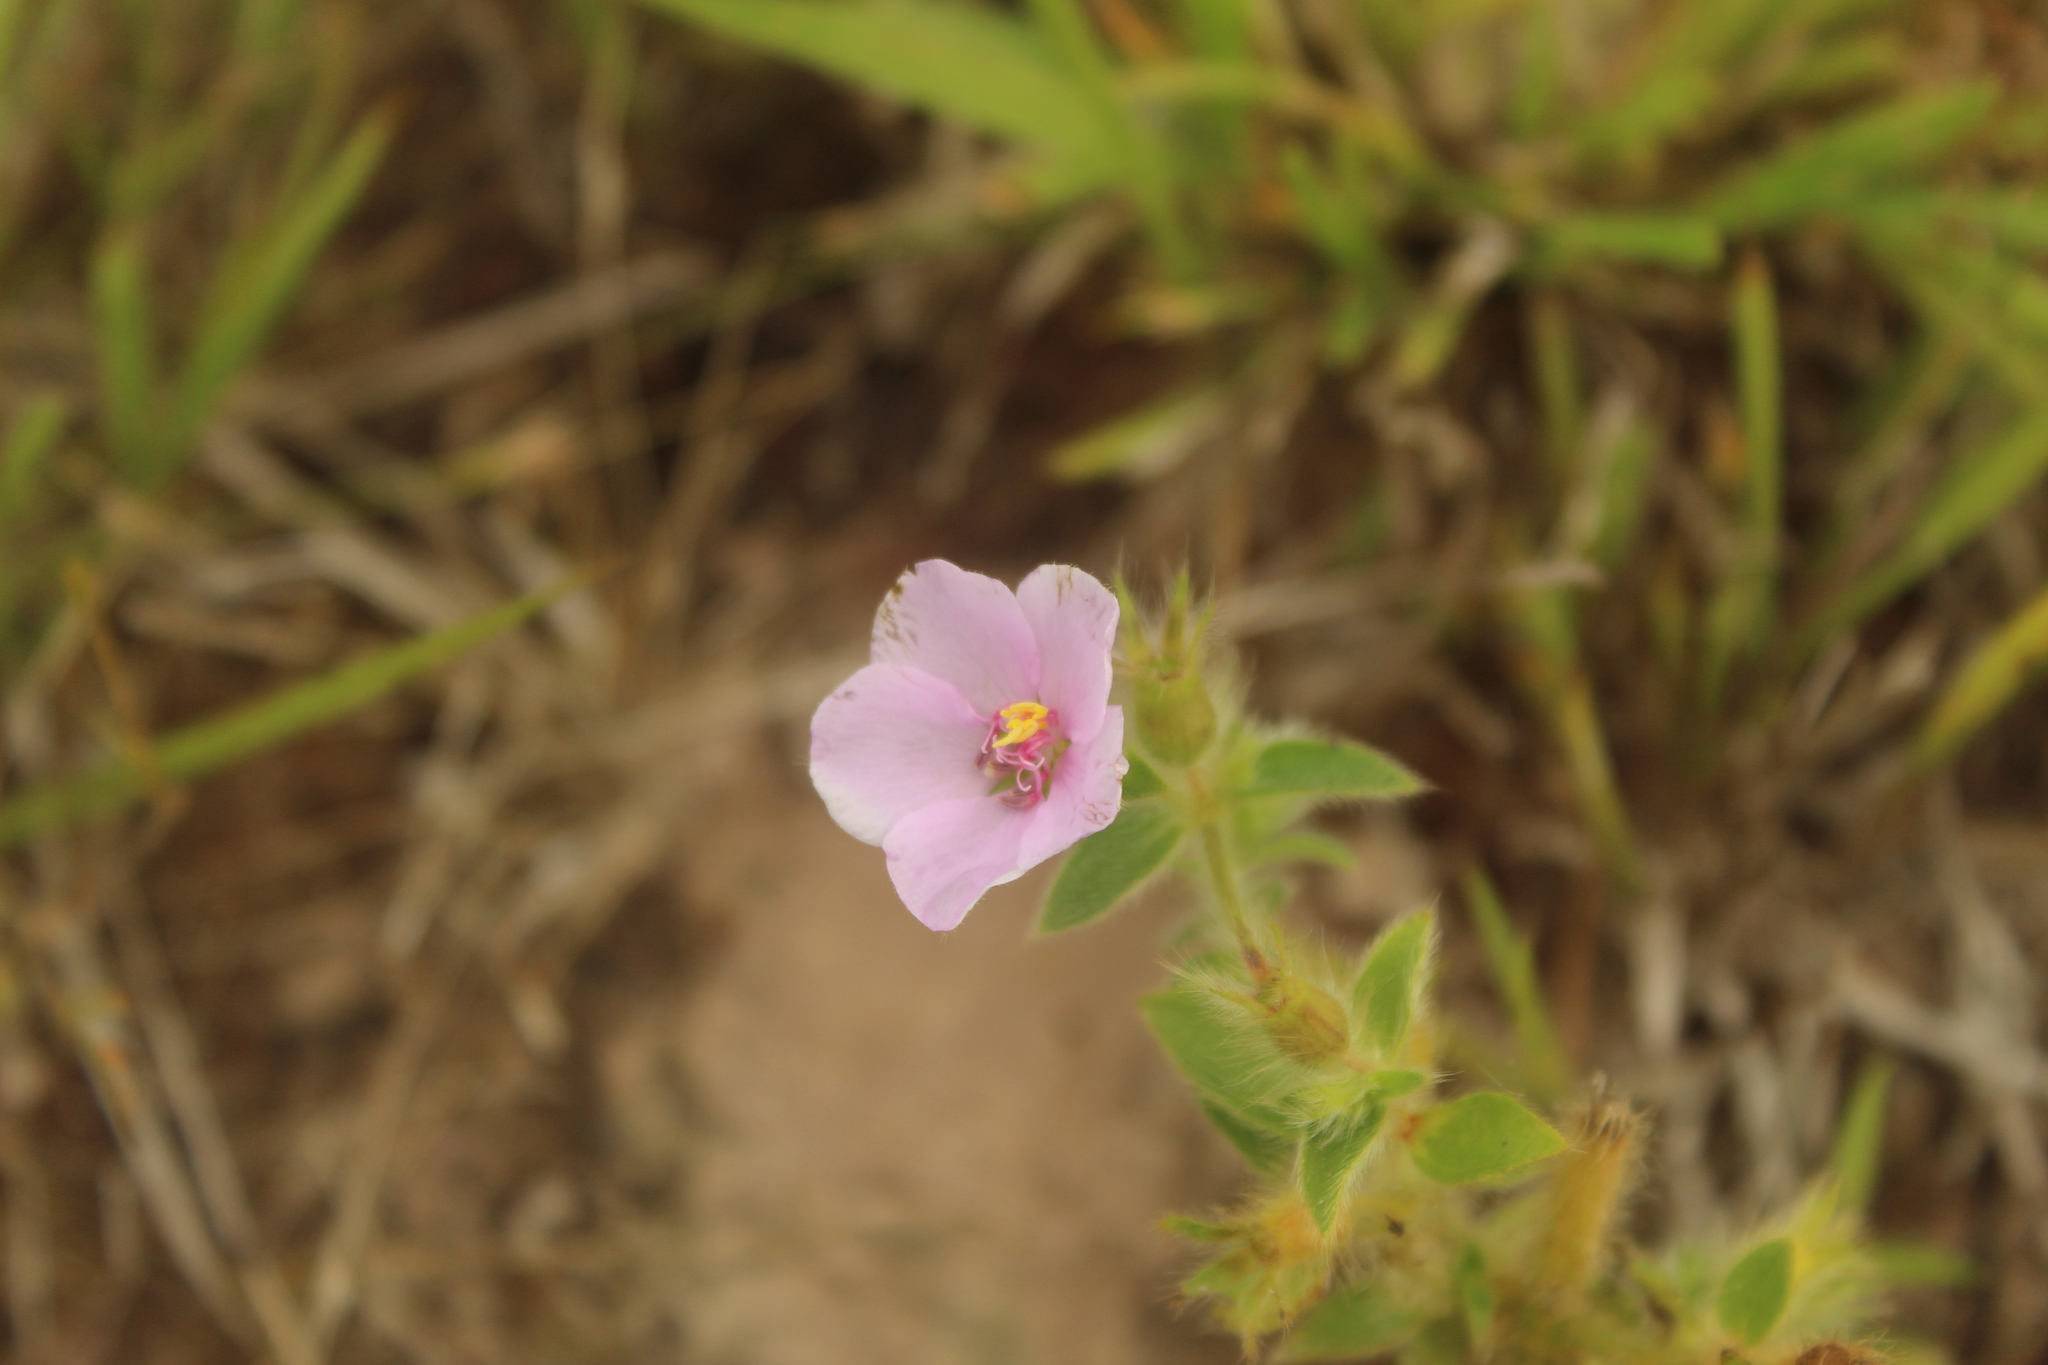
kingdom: Plantae
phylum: Tracheophyta
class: Magnoliopsida
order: Myrtales
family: Melastomataceae
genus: Desmoscelis
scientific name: Desmoscelis villosa
